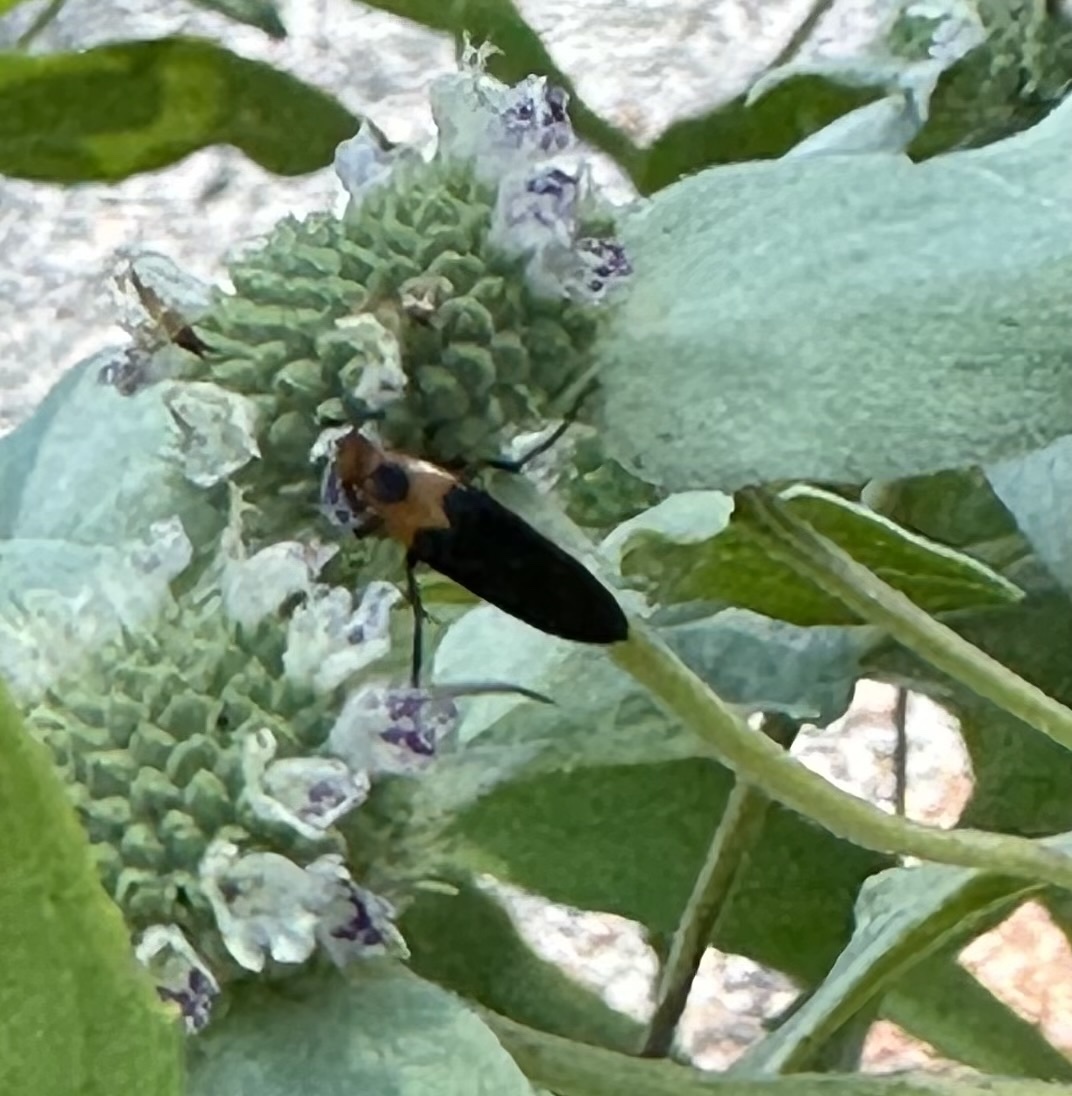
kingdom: Animalia
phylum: Arthropoda
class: Insecta
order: Coleoptera
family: Ripiphoridae
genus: Macrosiagon
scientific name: Macrosiagon limbatum
